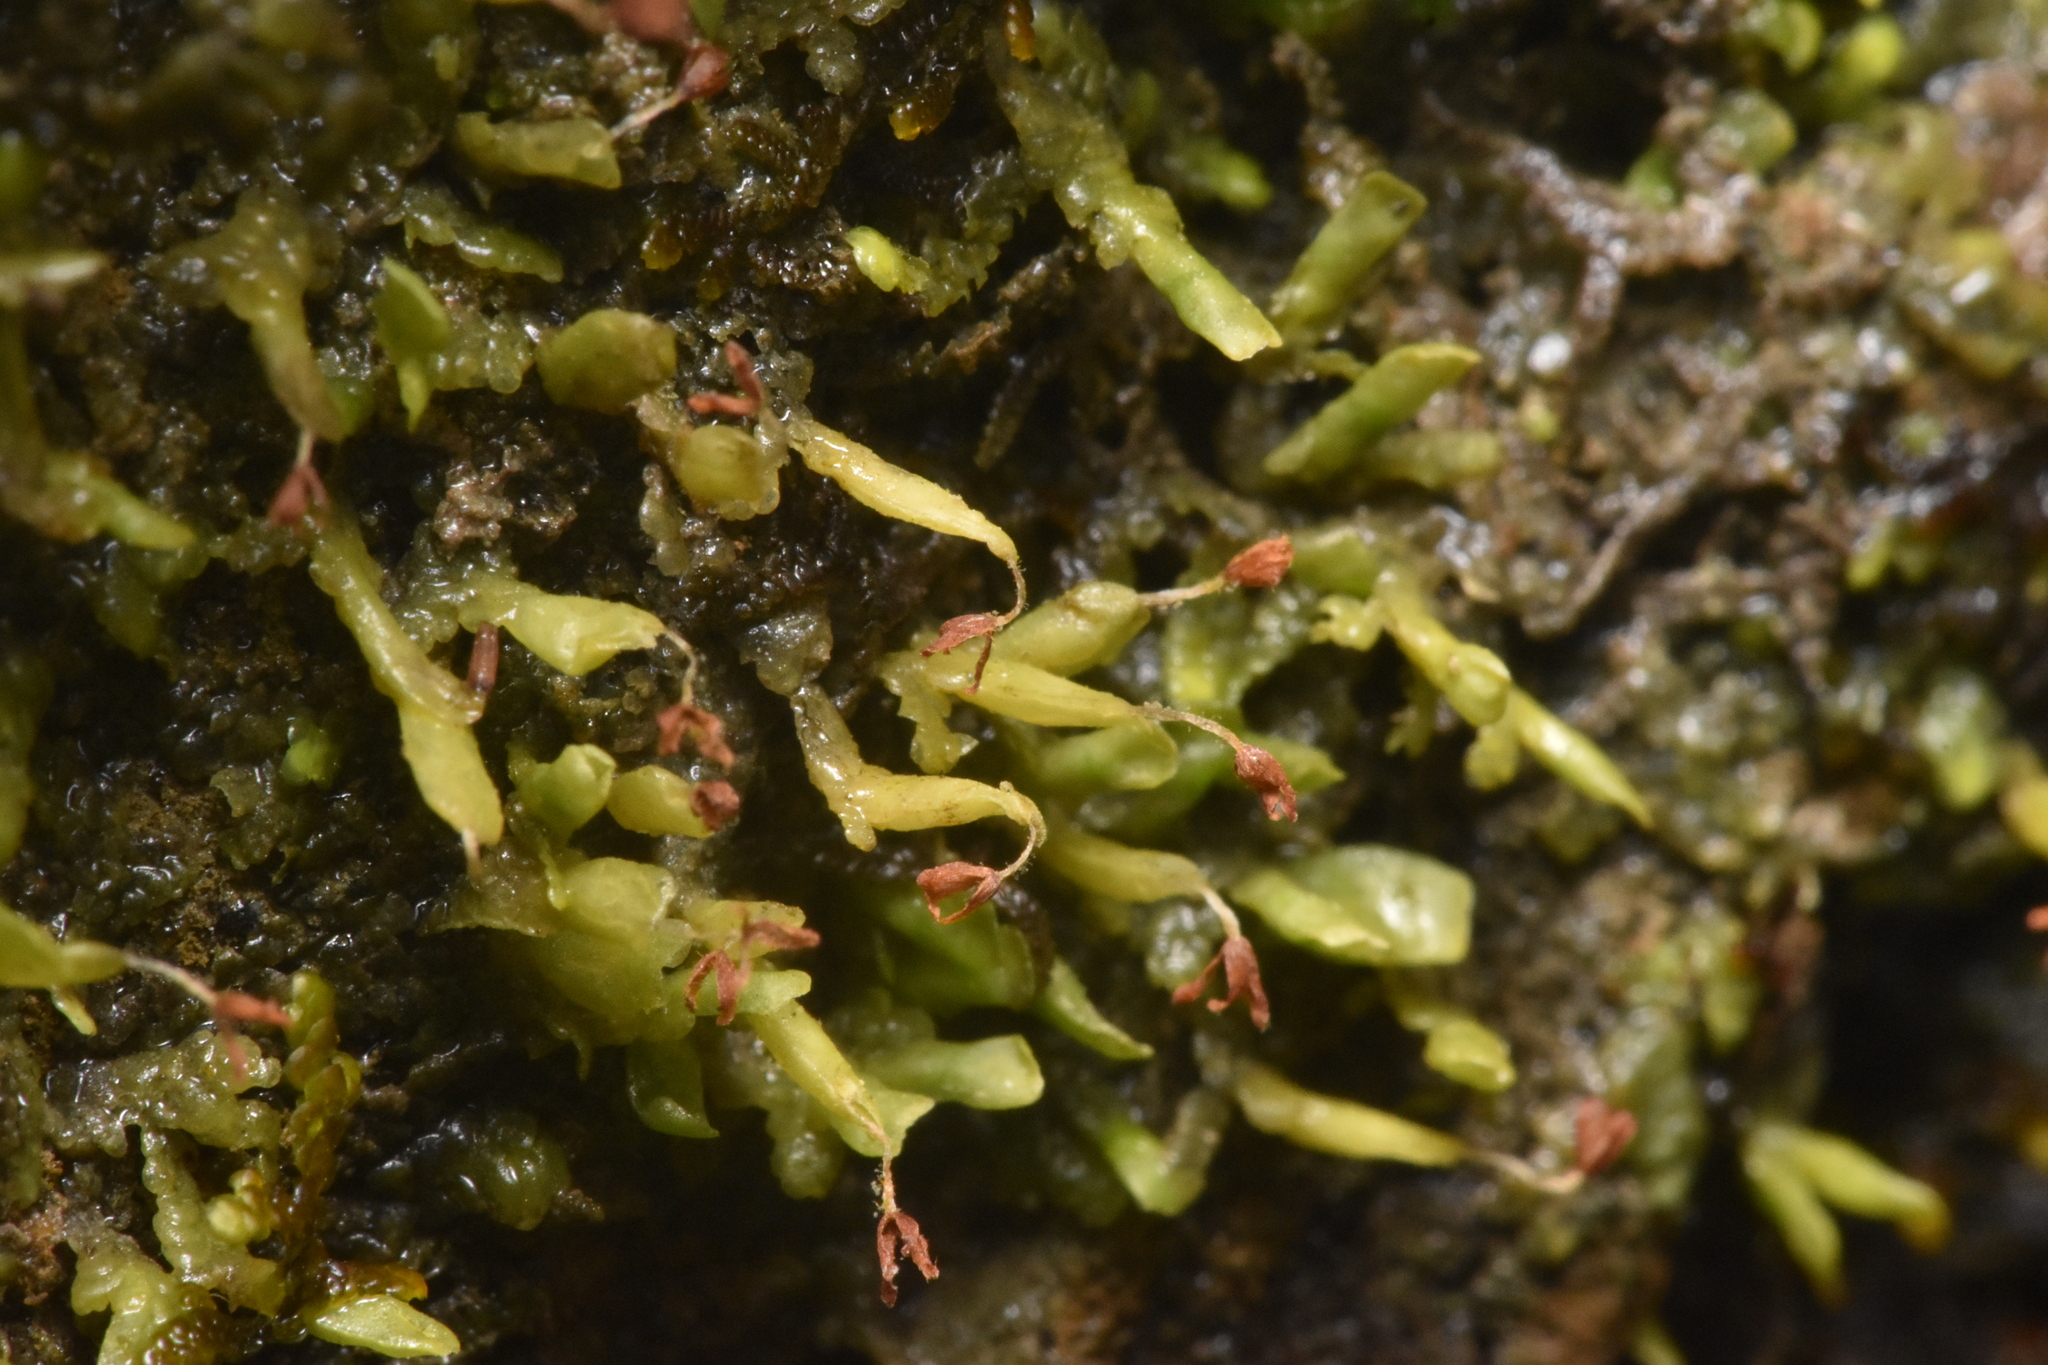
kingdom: Plantae
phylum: Marchantiophyta
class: Jungermanniopsida
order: Porellales
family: Radulaceae
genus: Radula
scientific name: Radula complanata
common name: Flat-leaved scalewort
